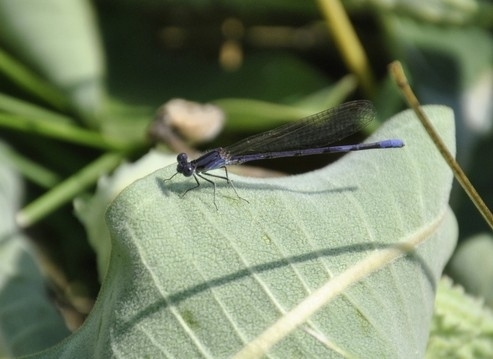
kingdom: Animalia
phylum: Arthropoda
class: Insecta
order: Odonata
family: Coenagrionidae
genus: Argia
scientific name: Argia fumipennis
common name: Variable dancer
